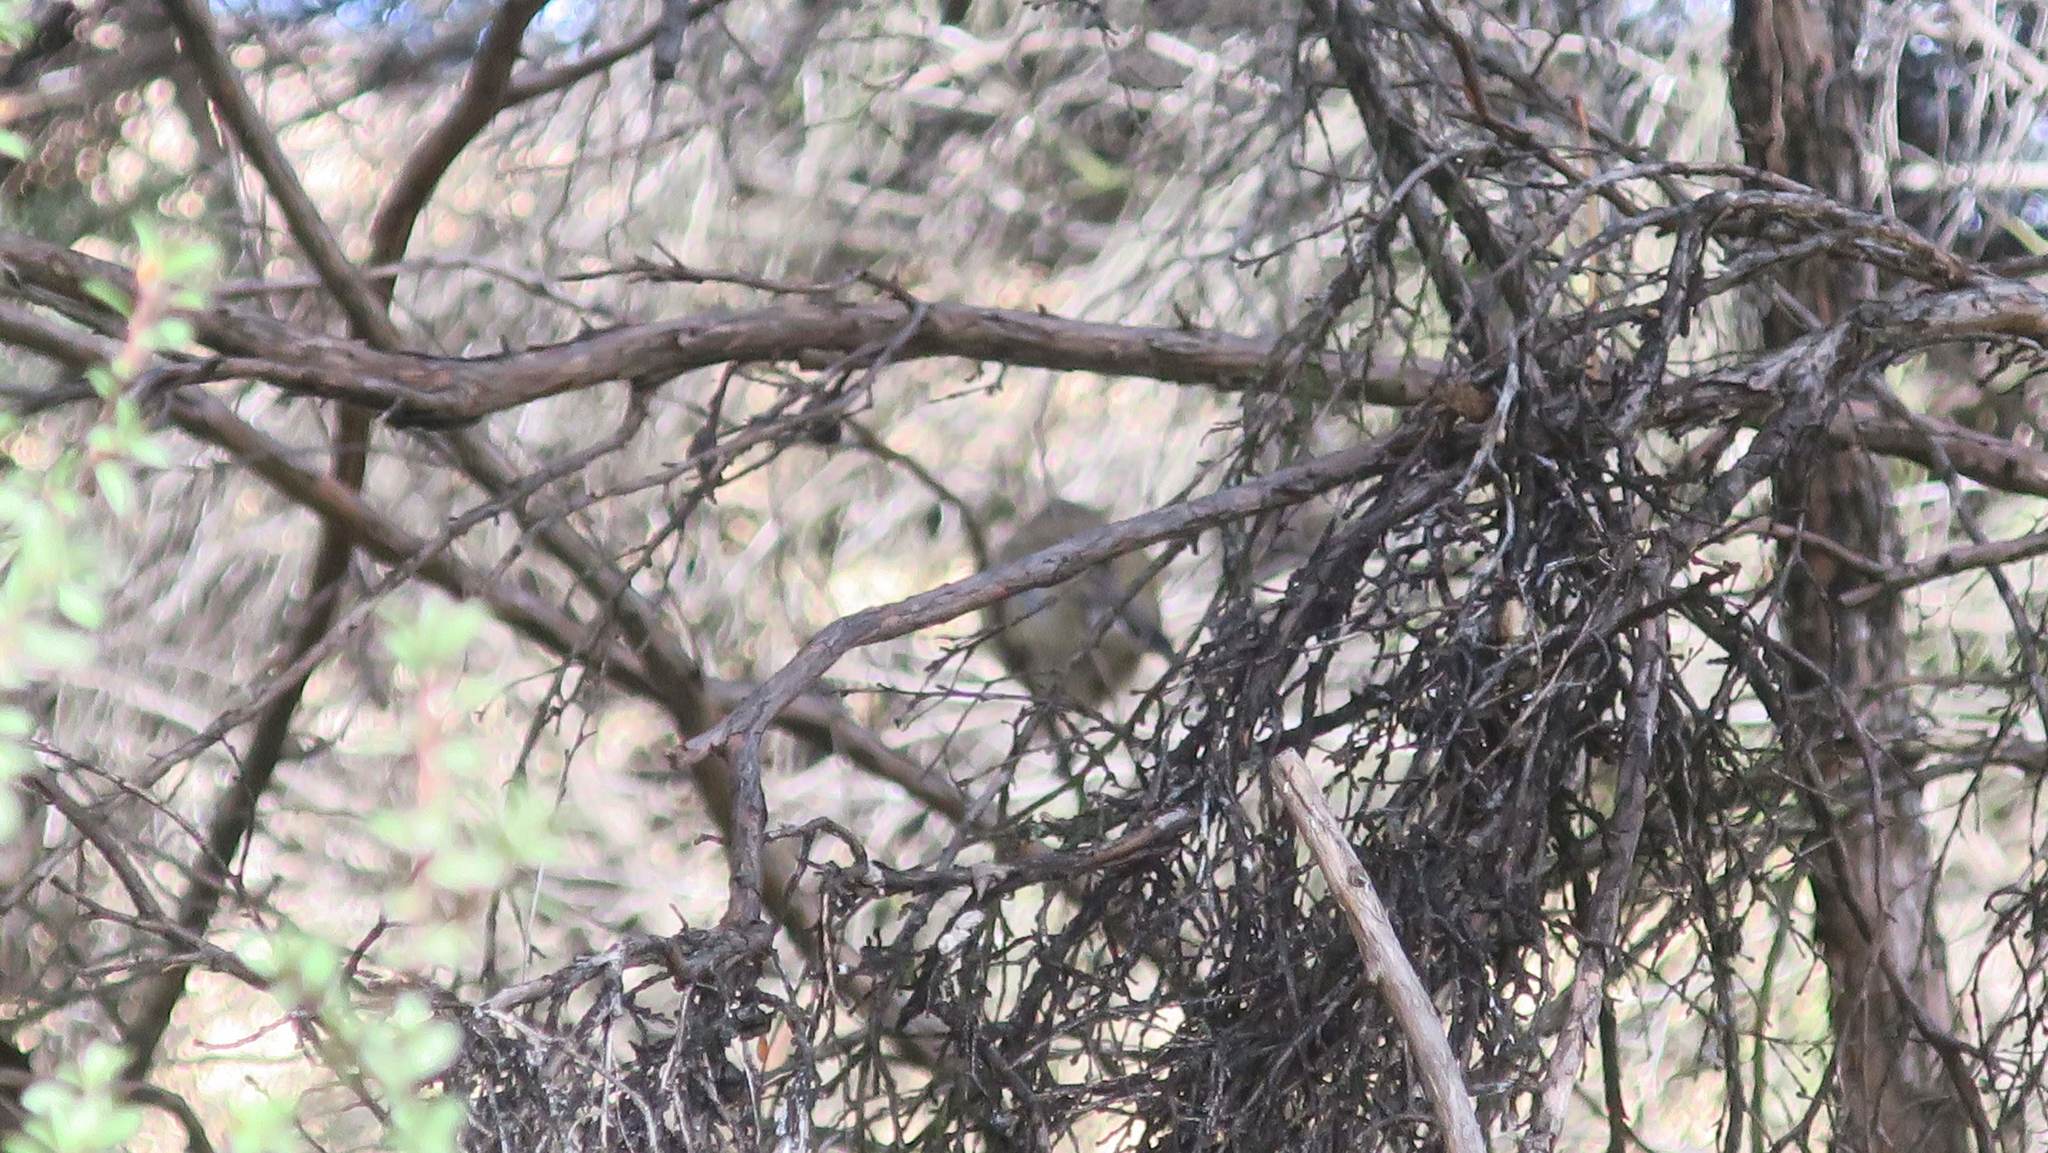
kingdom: Animalia
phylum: Chordata
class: Aves
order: Passeriformes
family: Acanthizidae
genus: Gerygone
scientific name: Gerygone igata
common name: Grey gerygone
